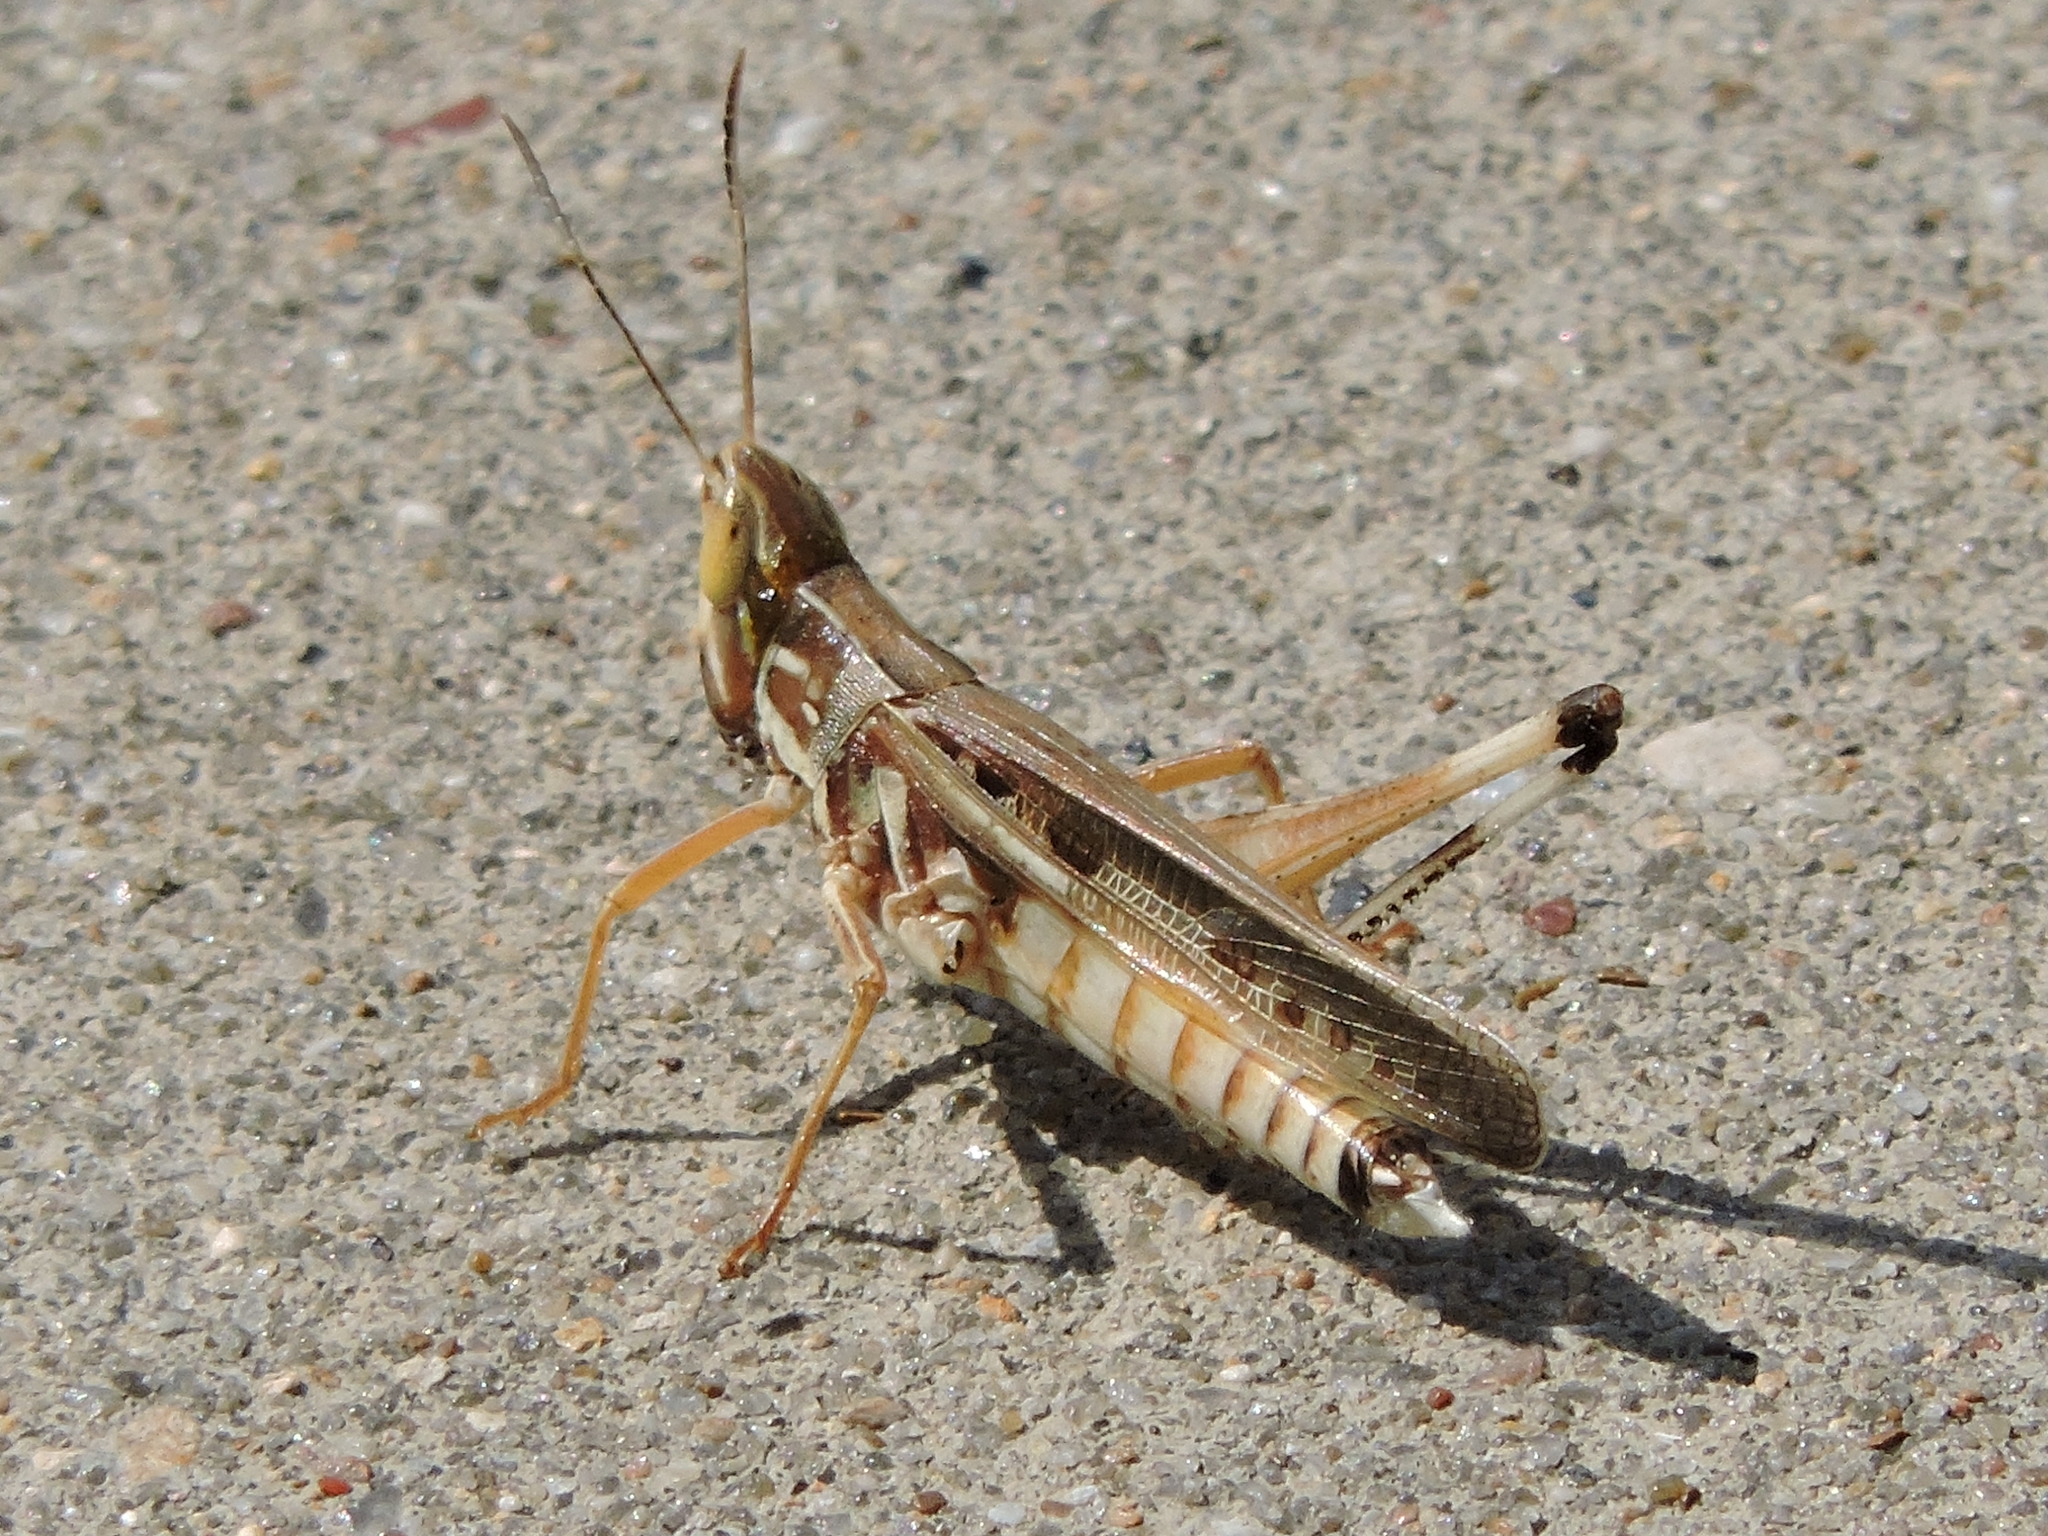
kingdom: Animalia
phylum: Arthropoda
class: Insecta
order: Orthoptera
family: Acrididae
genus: Syrbula
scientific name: Syrbula admirabilis
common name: Handsome grasshopper
